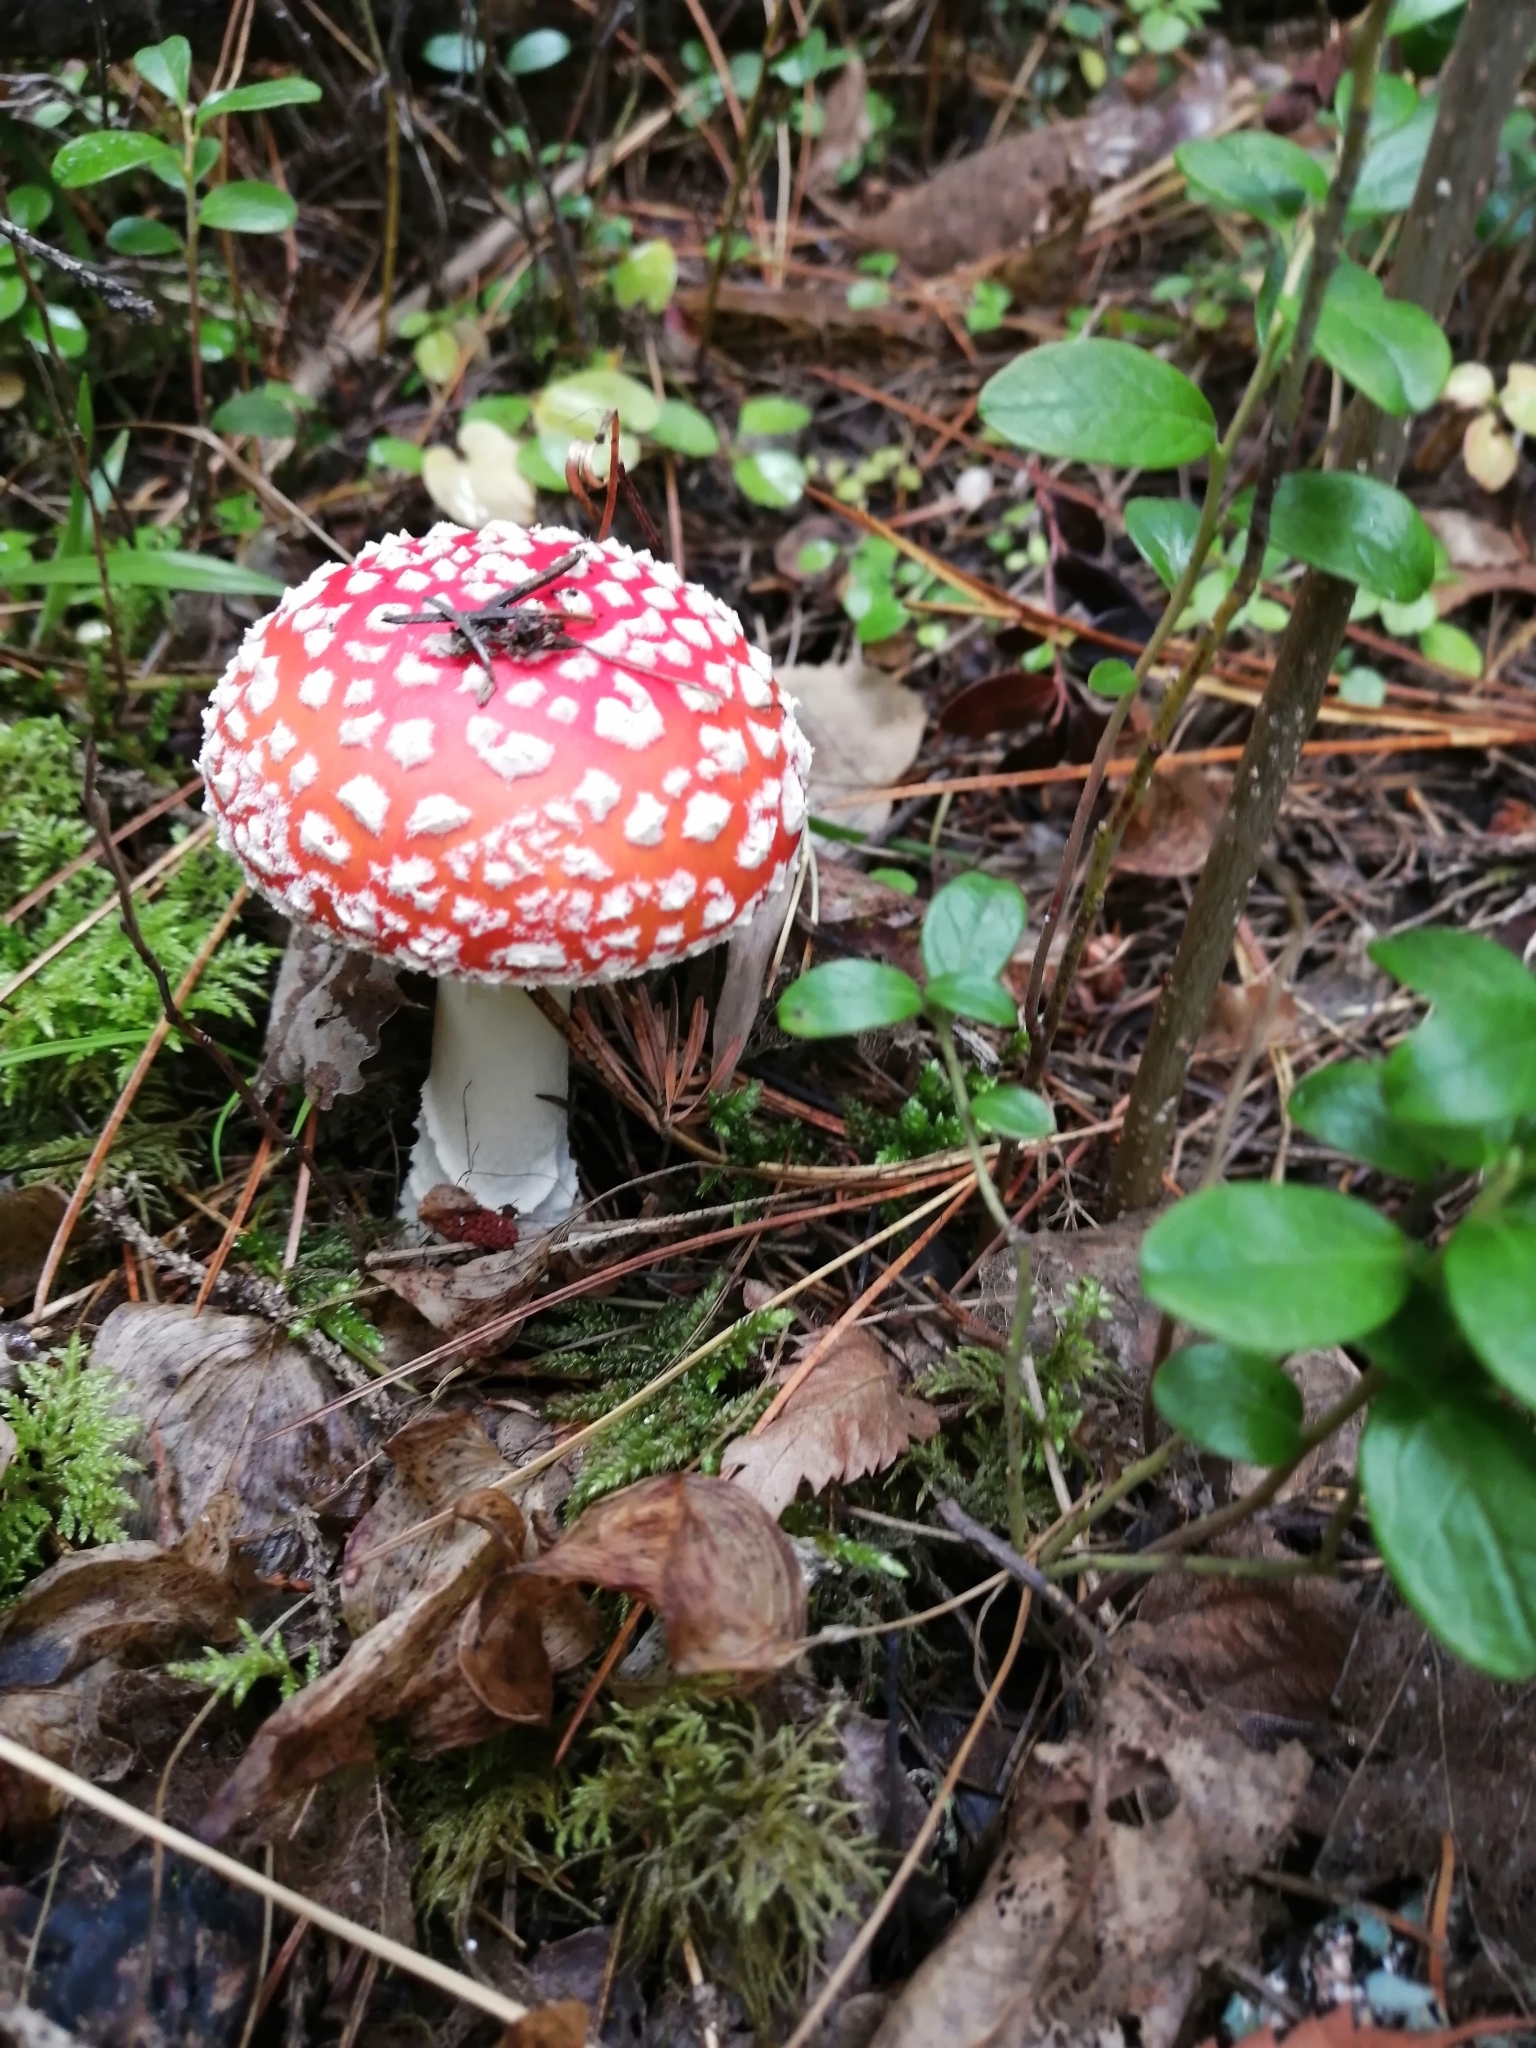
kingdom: Fungi
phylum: Basidiomycota
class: Agaricomycetes
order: Agaricales
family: Amanitaceae
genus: Amanita
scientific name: Amanita muscaria
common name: Fly agaric
